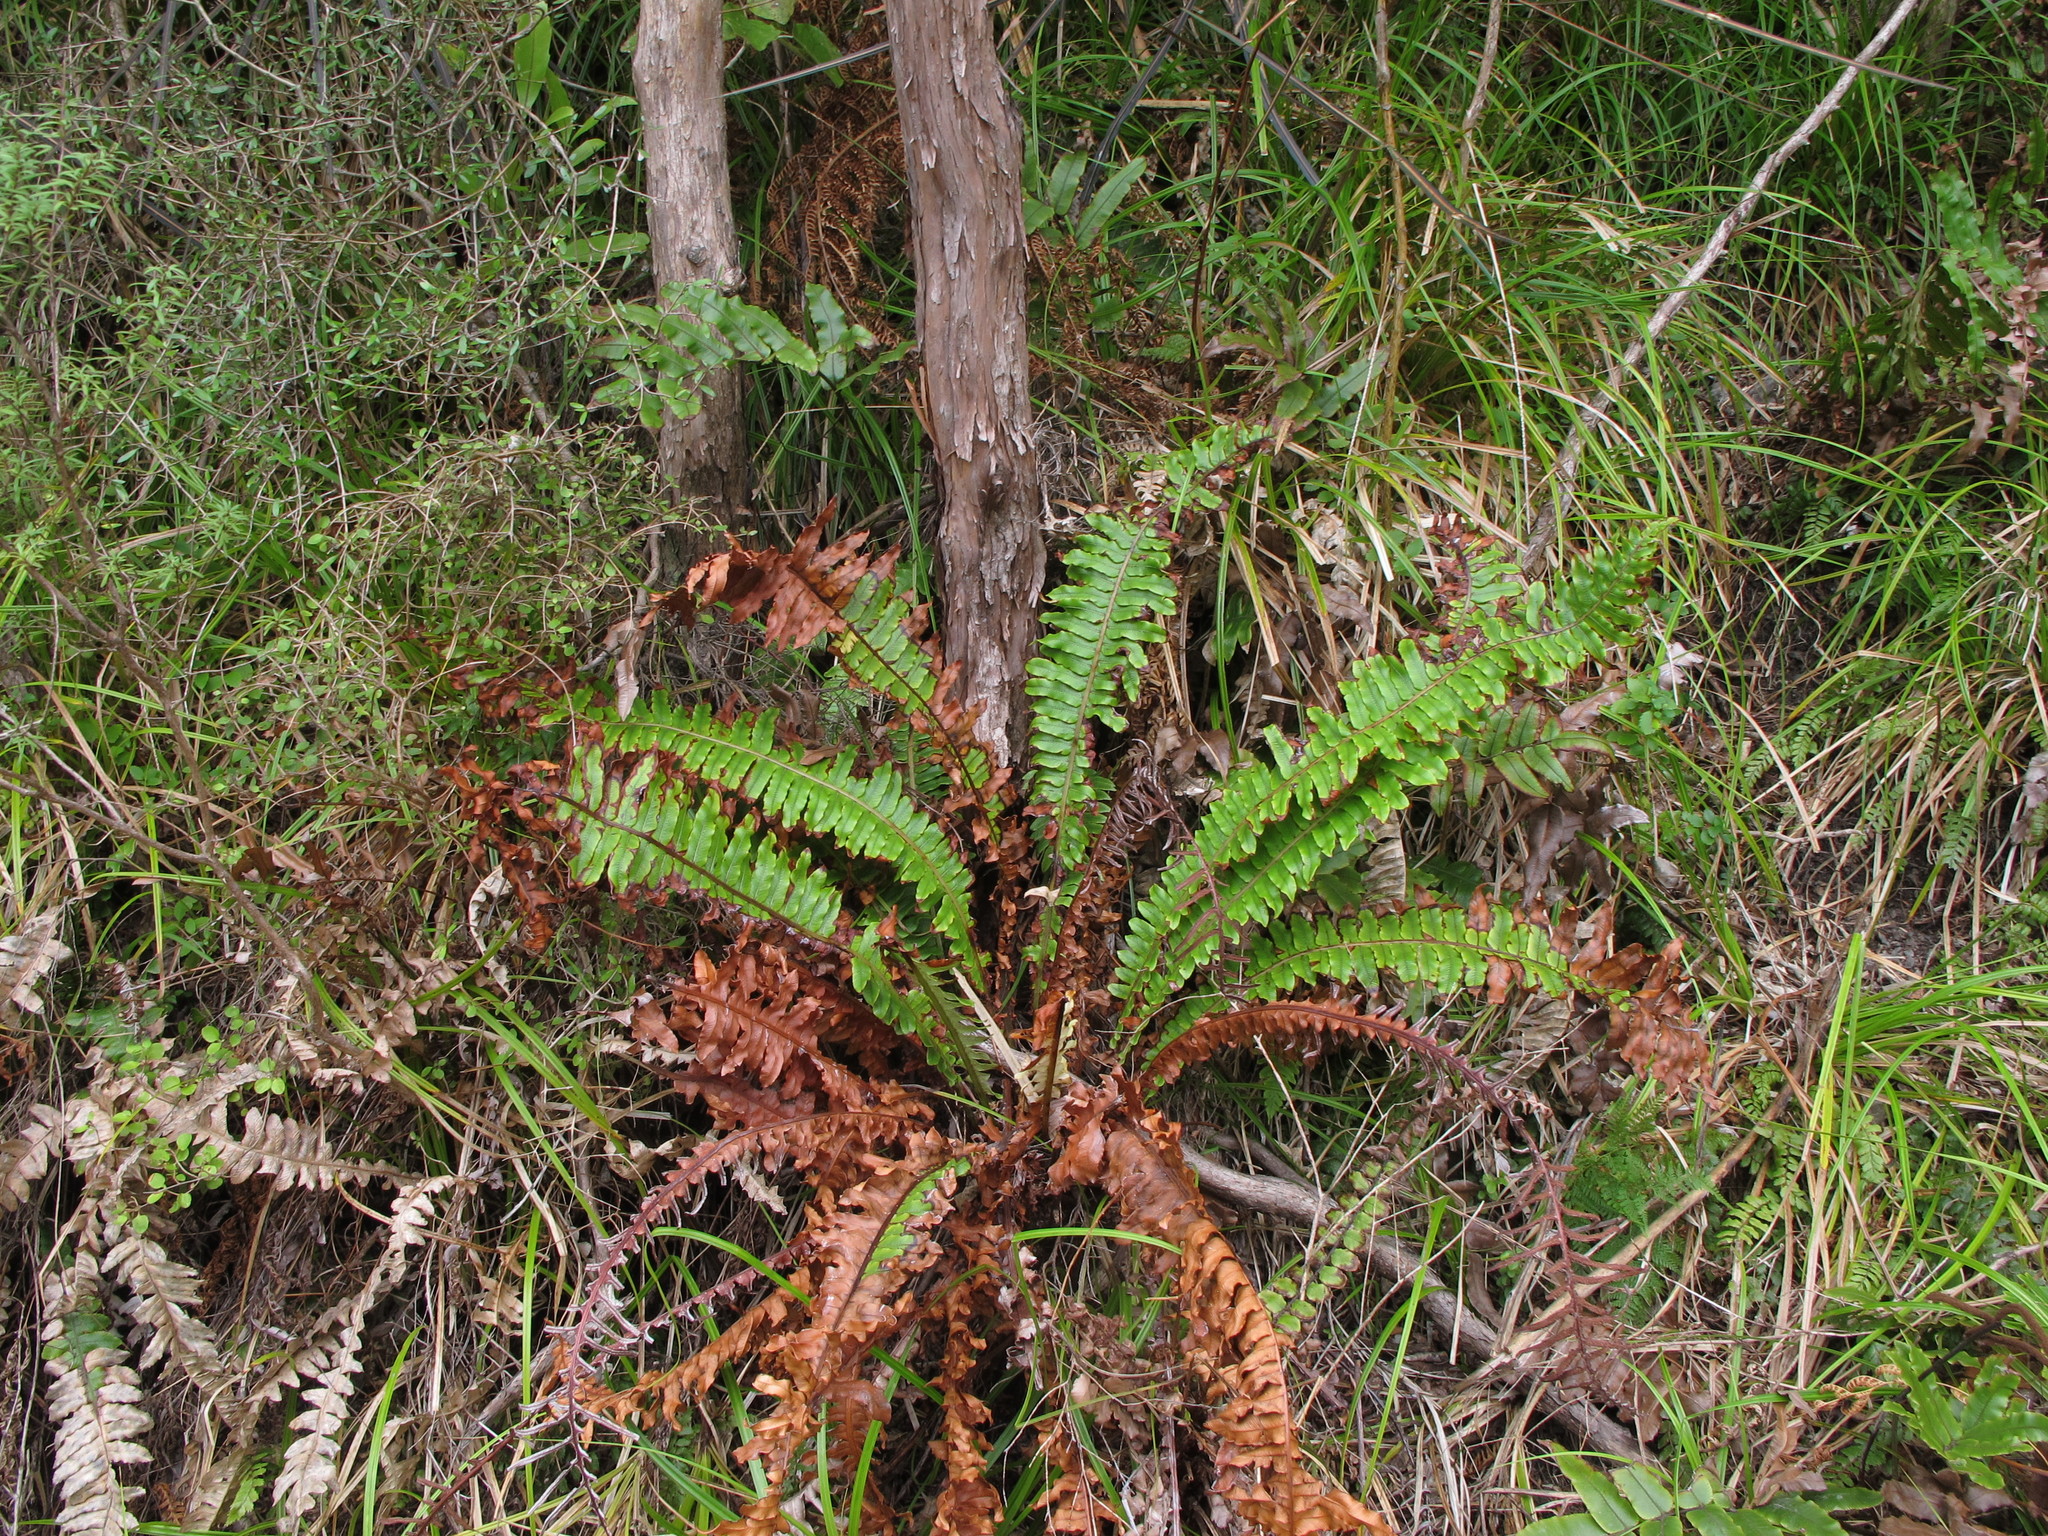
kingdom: Plantae
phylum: Tracheophyta
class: Polypodiopsida
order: Polypodiales
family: Blechnaceae
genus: Lomaria
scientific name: Lomaria discolor
